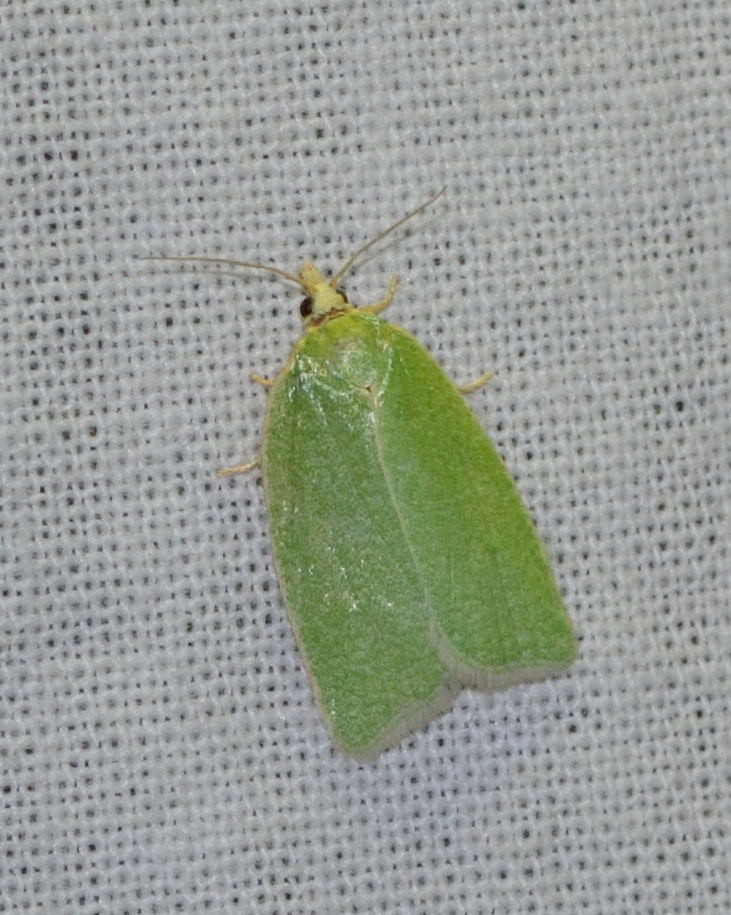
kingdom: Animalia
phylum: Arthropoda
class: Insecta
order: Lepidoptera
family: Tortricidae
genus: Tortrix
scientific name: Tortrix viridana
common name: Green oak tortrix
